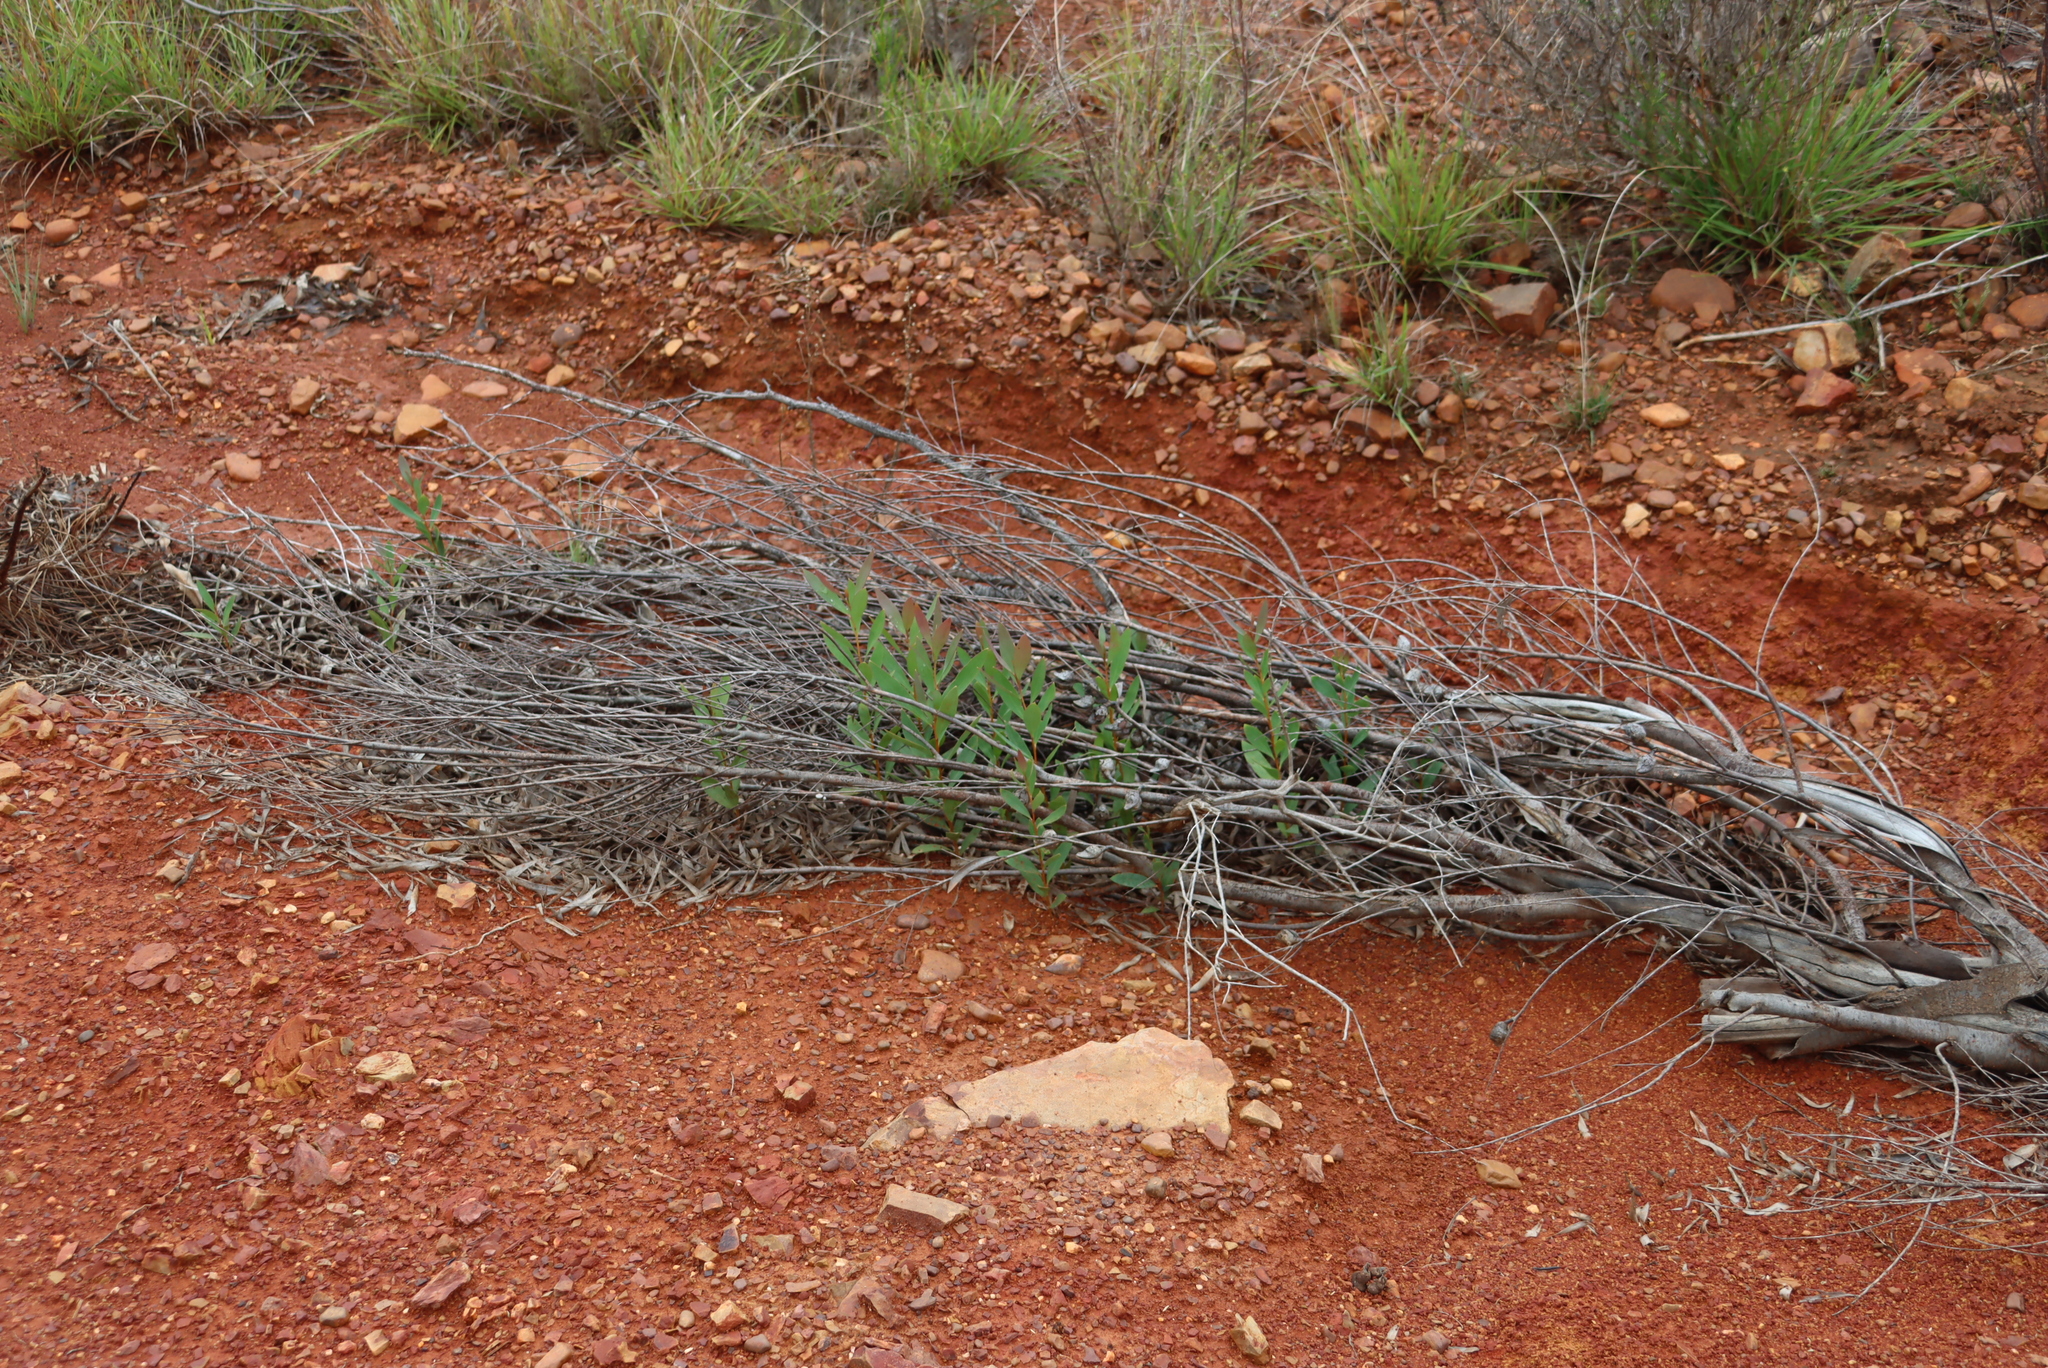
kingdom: Plantae
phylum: Tracheophyta
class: Magnoliopsida
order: Proteales
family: Proteaceae
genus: Hakea
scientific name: Hakea salicifolia
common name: Willow hakea
